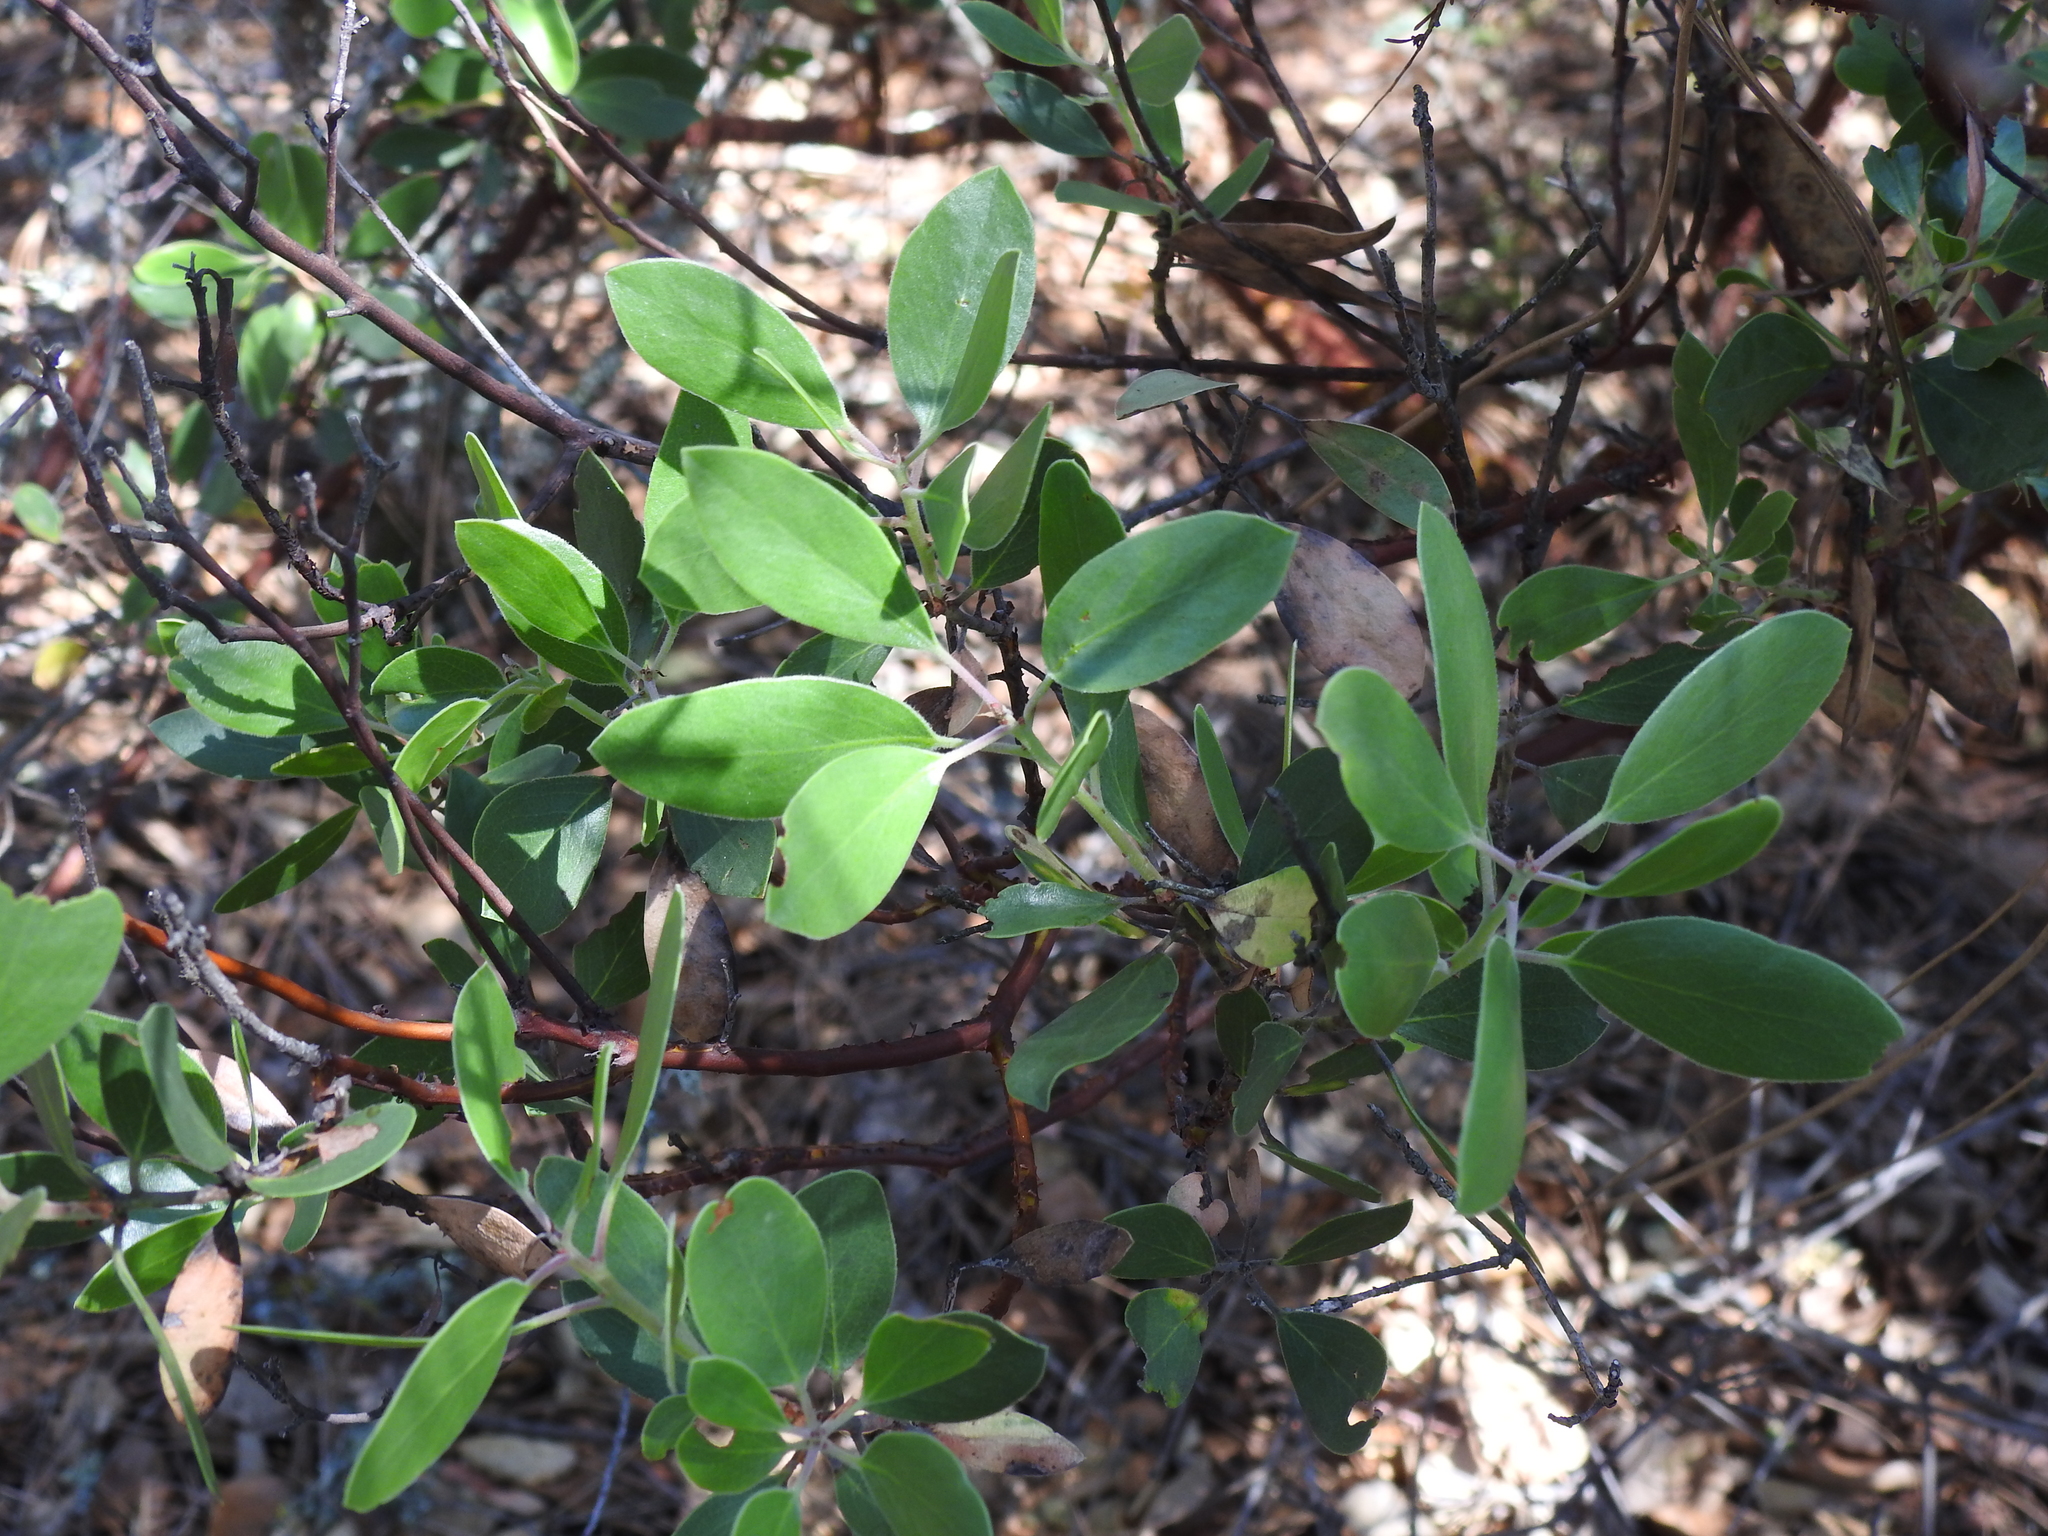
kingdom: Plantae
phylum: Tracheophyta
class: Magnoliopsida
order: Ericales
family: Ericaceae
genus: Arctostaphylos
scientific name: Arctostaphylos manzanita
